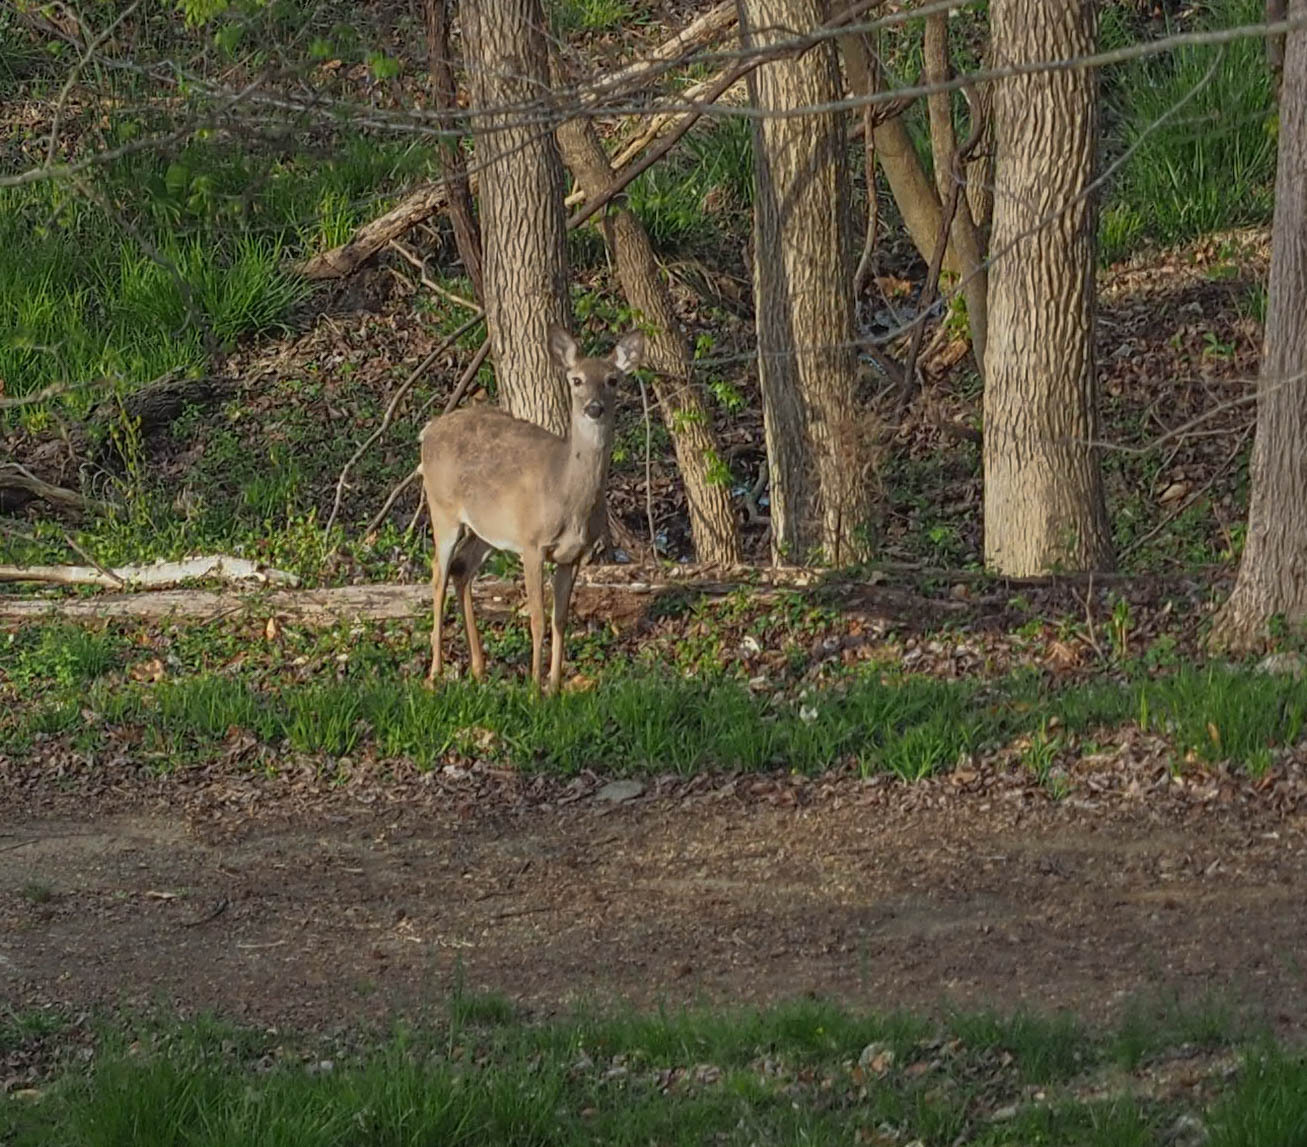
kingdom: Animalia
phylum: Chordata
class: Mammalia
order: Artiodactyla
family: Cervidae
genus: Odocoileus
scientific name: Odocoileus virginianus
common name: White-tailed deer
